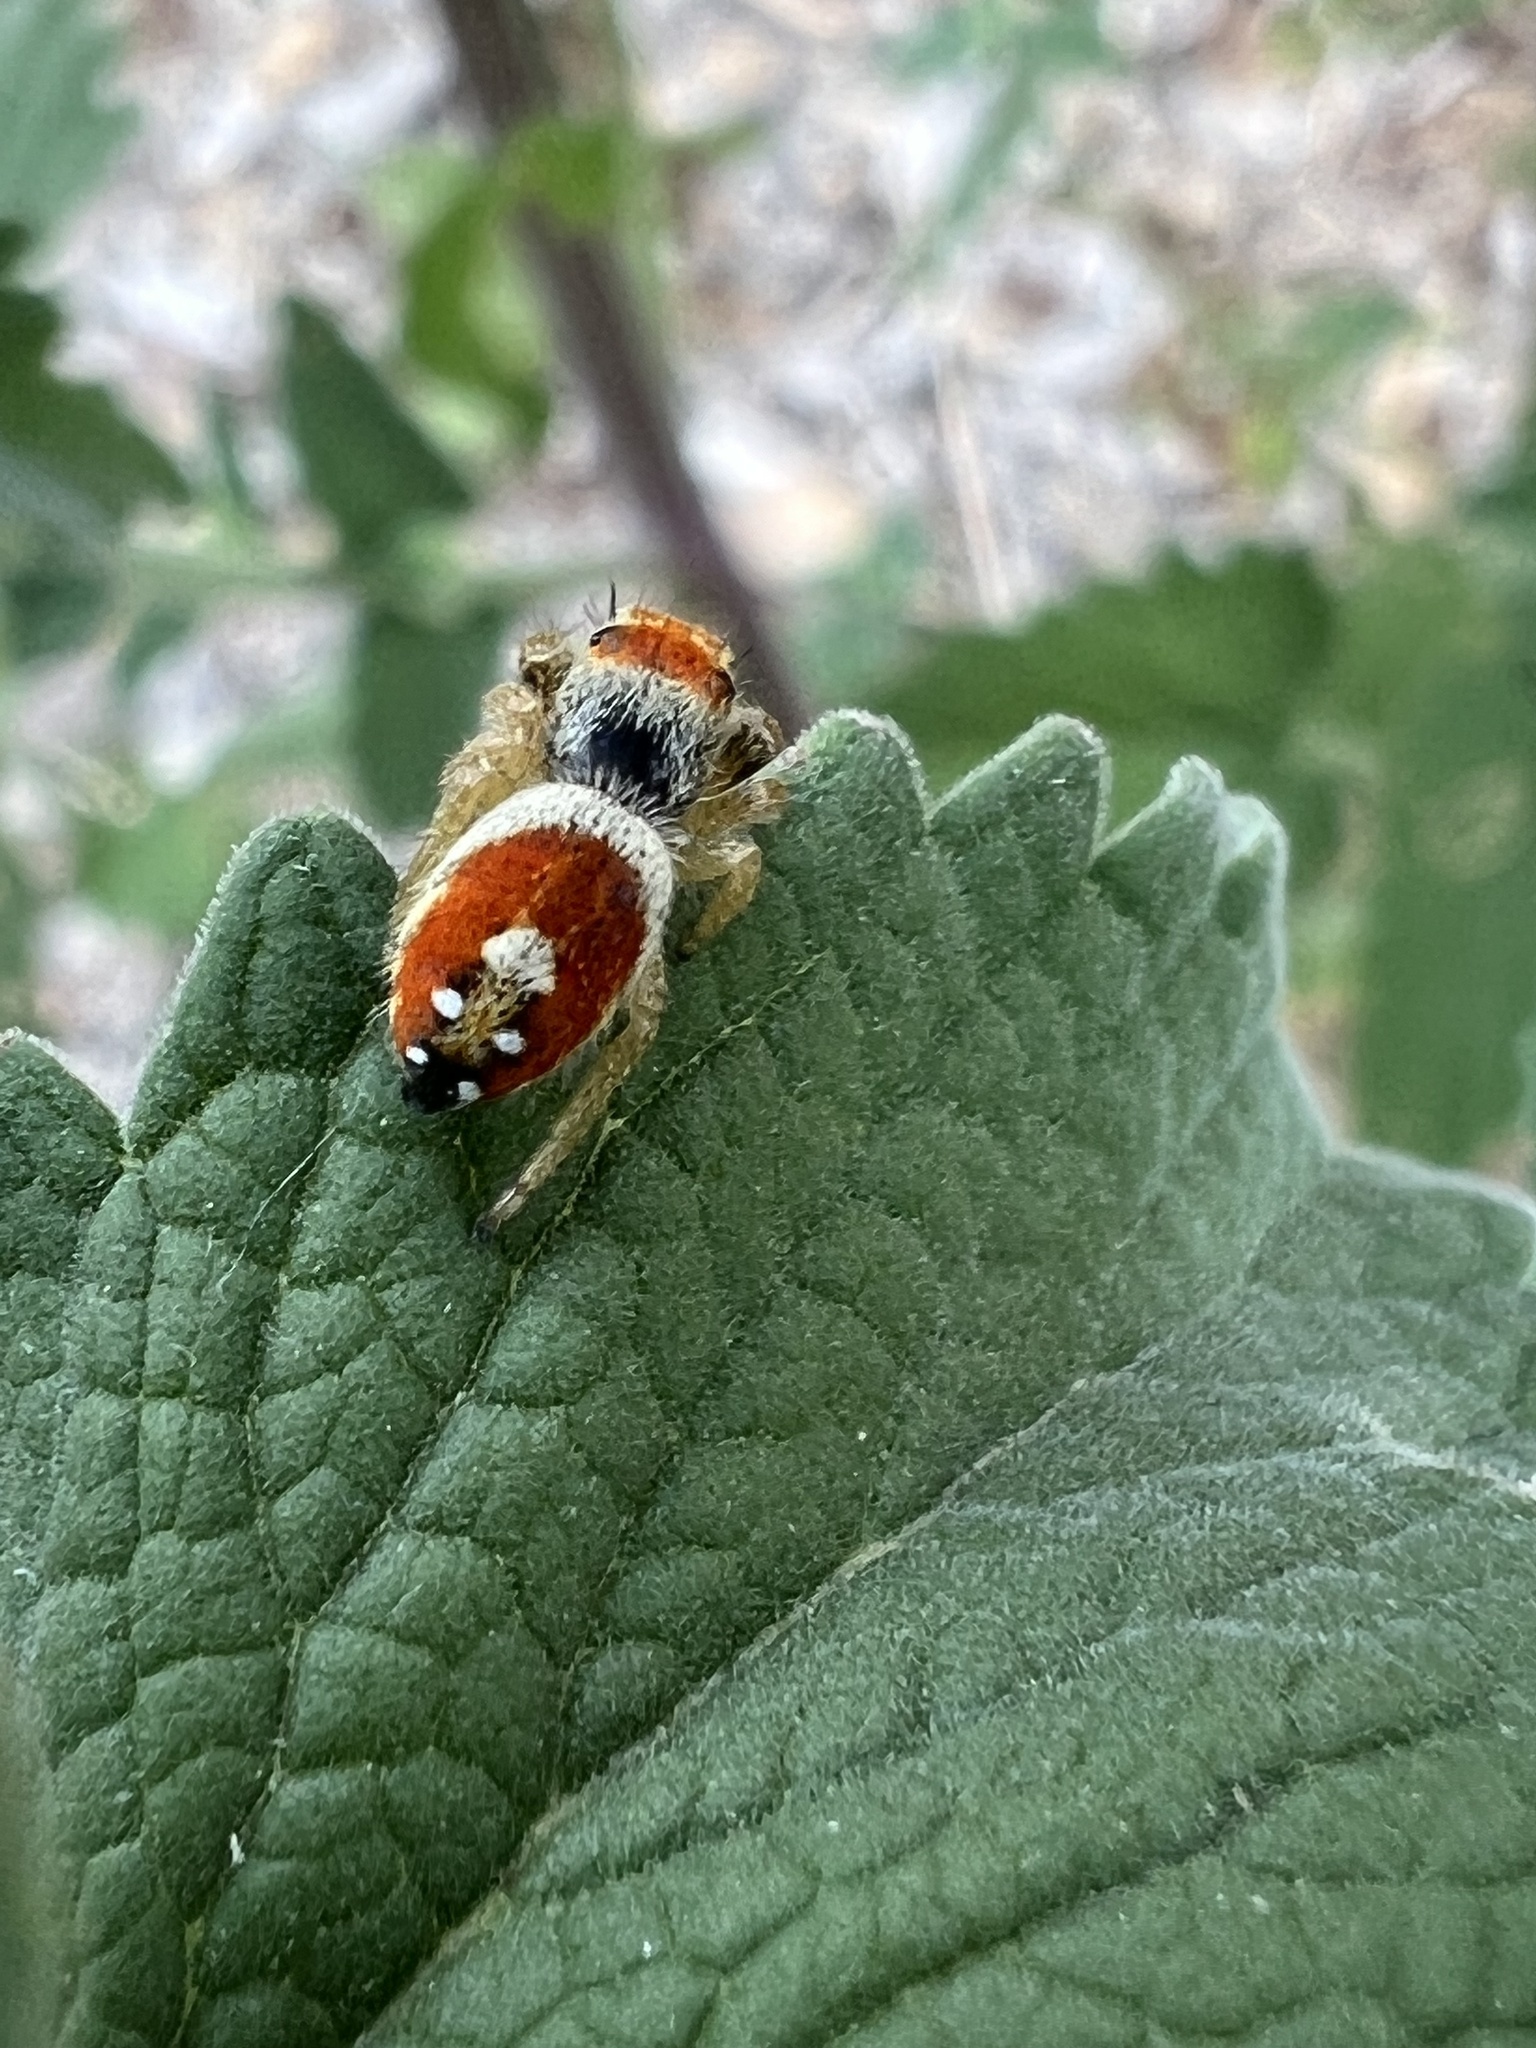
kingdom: Animalia
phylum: Arthropoda
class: Arachnida
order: Araneae
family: Salticidae
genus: Phidippus
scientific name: Phidippus apacheanus
